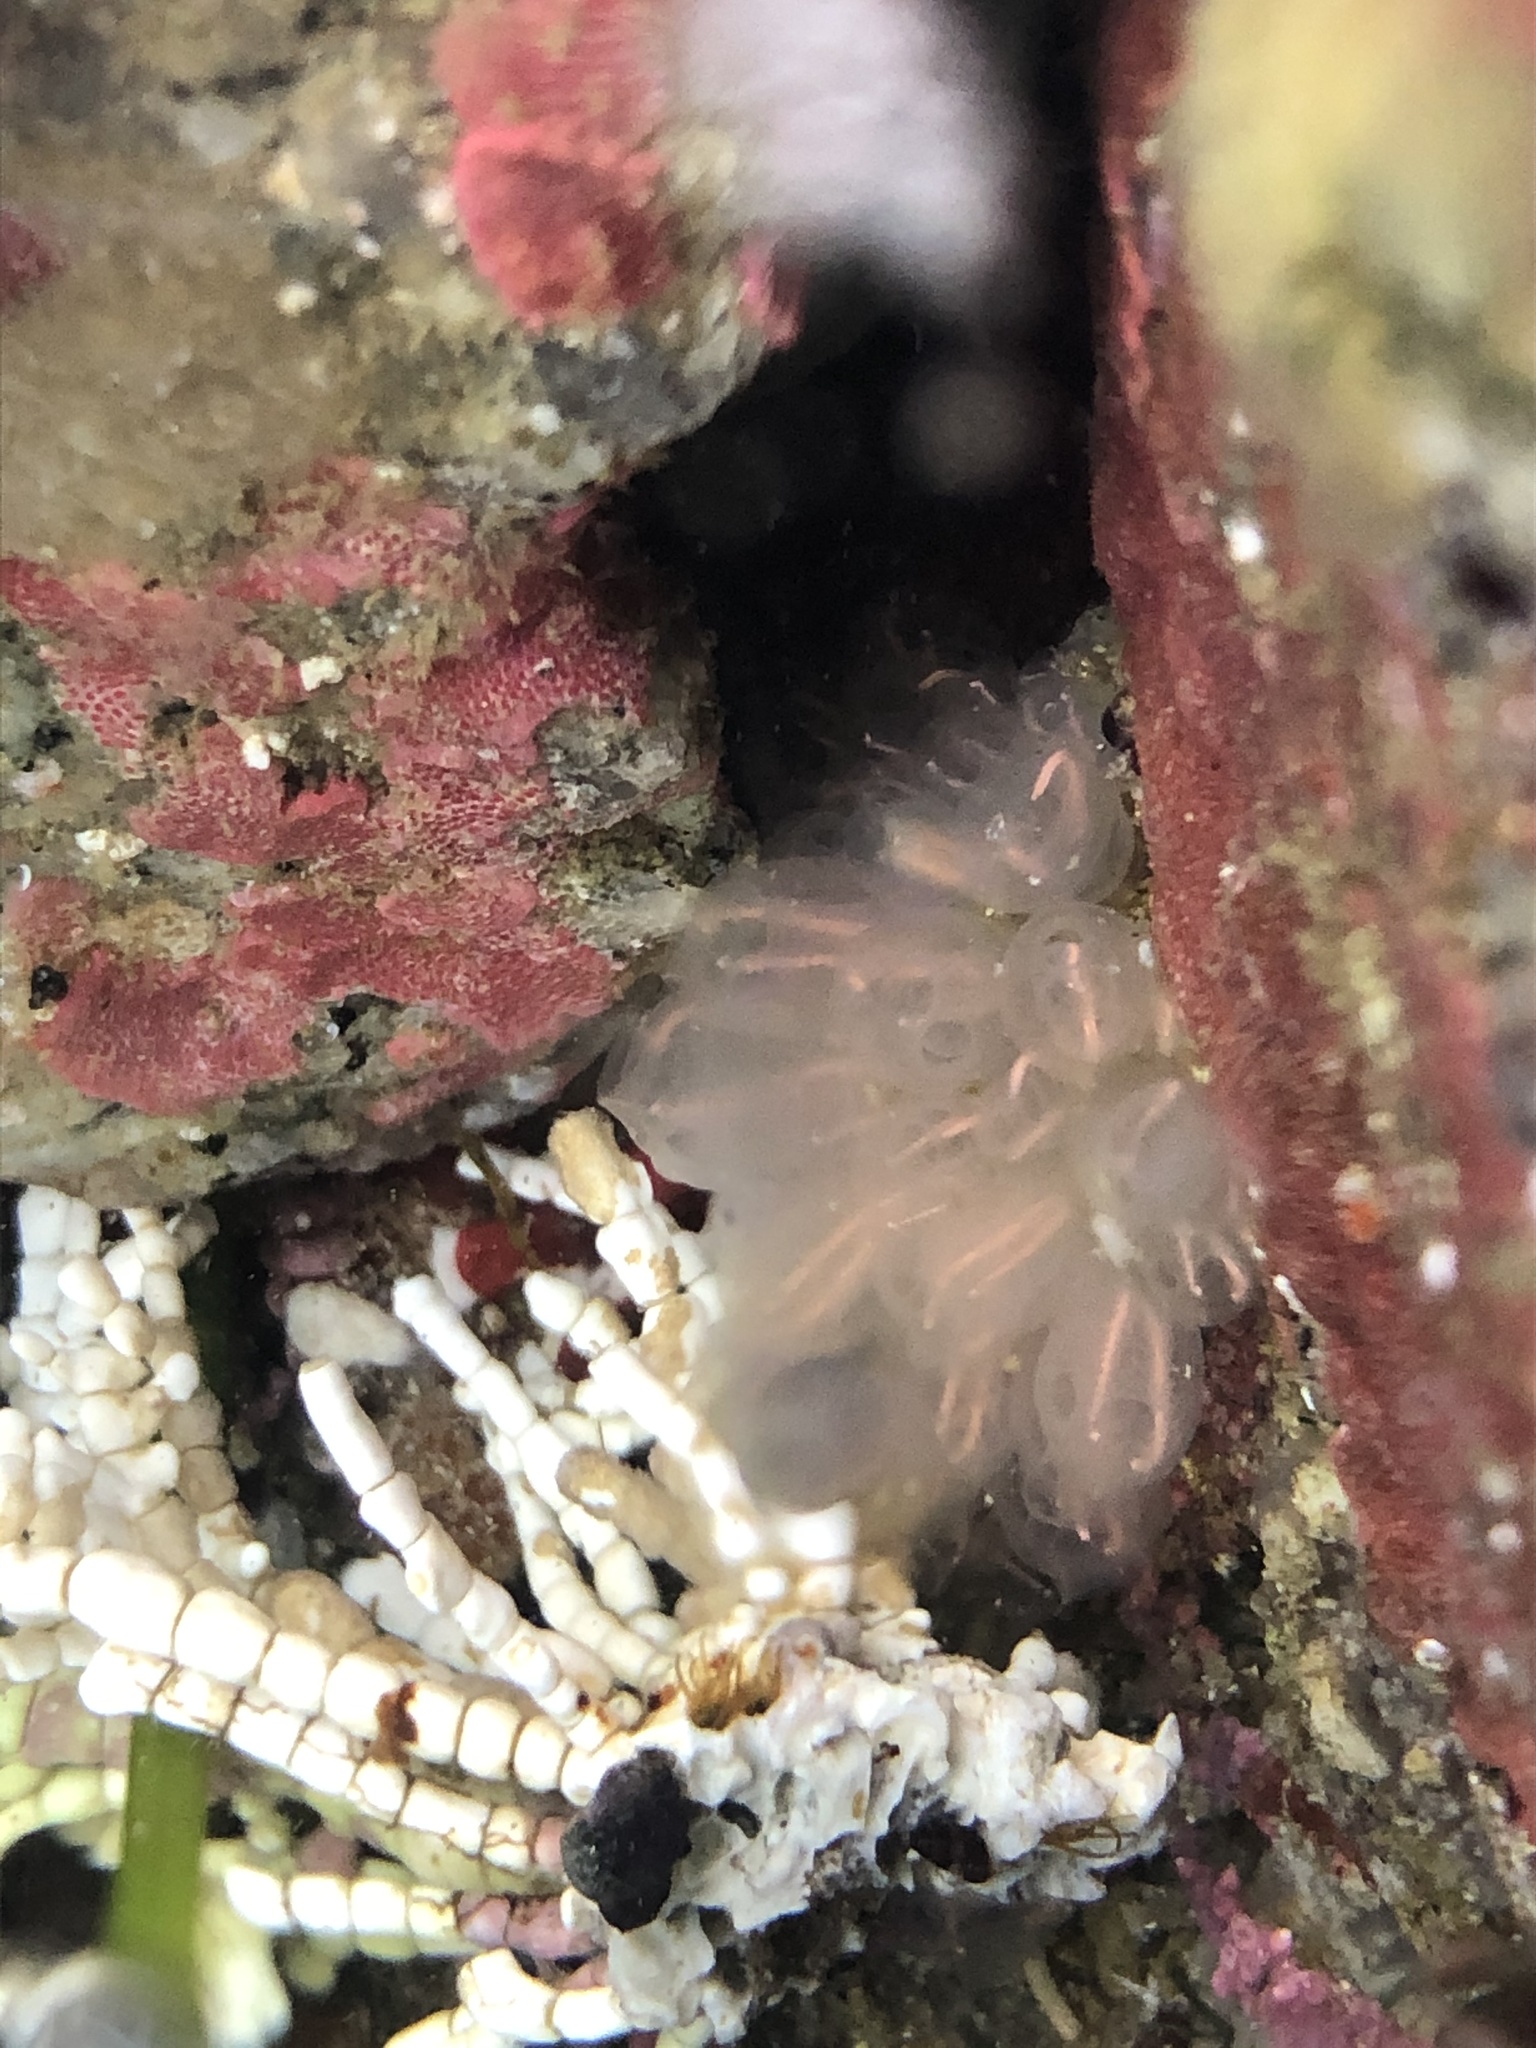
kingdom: Animalia
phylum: Chordata
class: Ascidiacea
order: Aplousobranchia
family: Clavelinidae
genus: Clavelina
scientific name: Clavelina huntsmani
